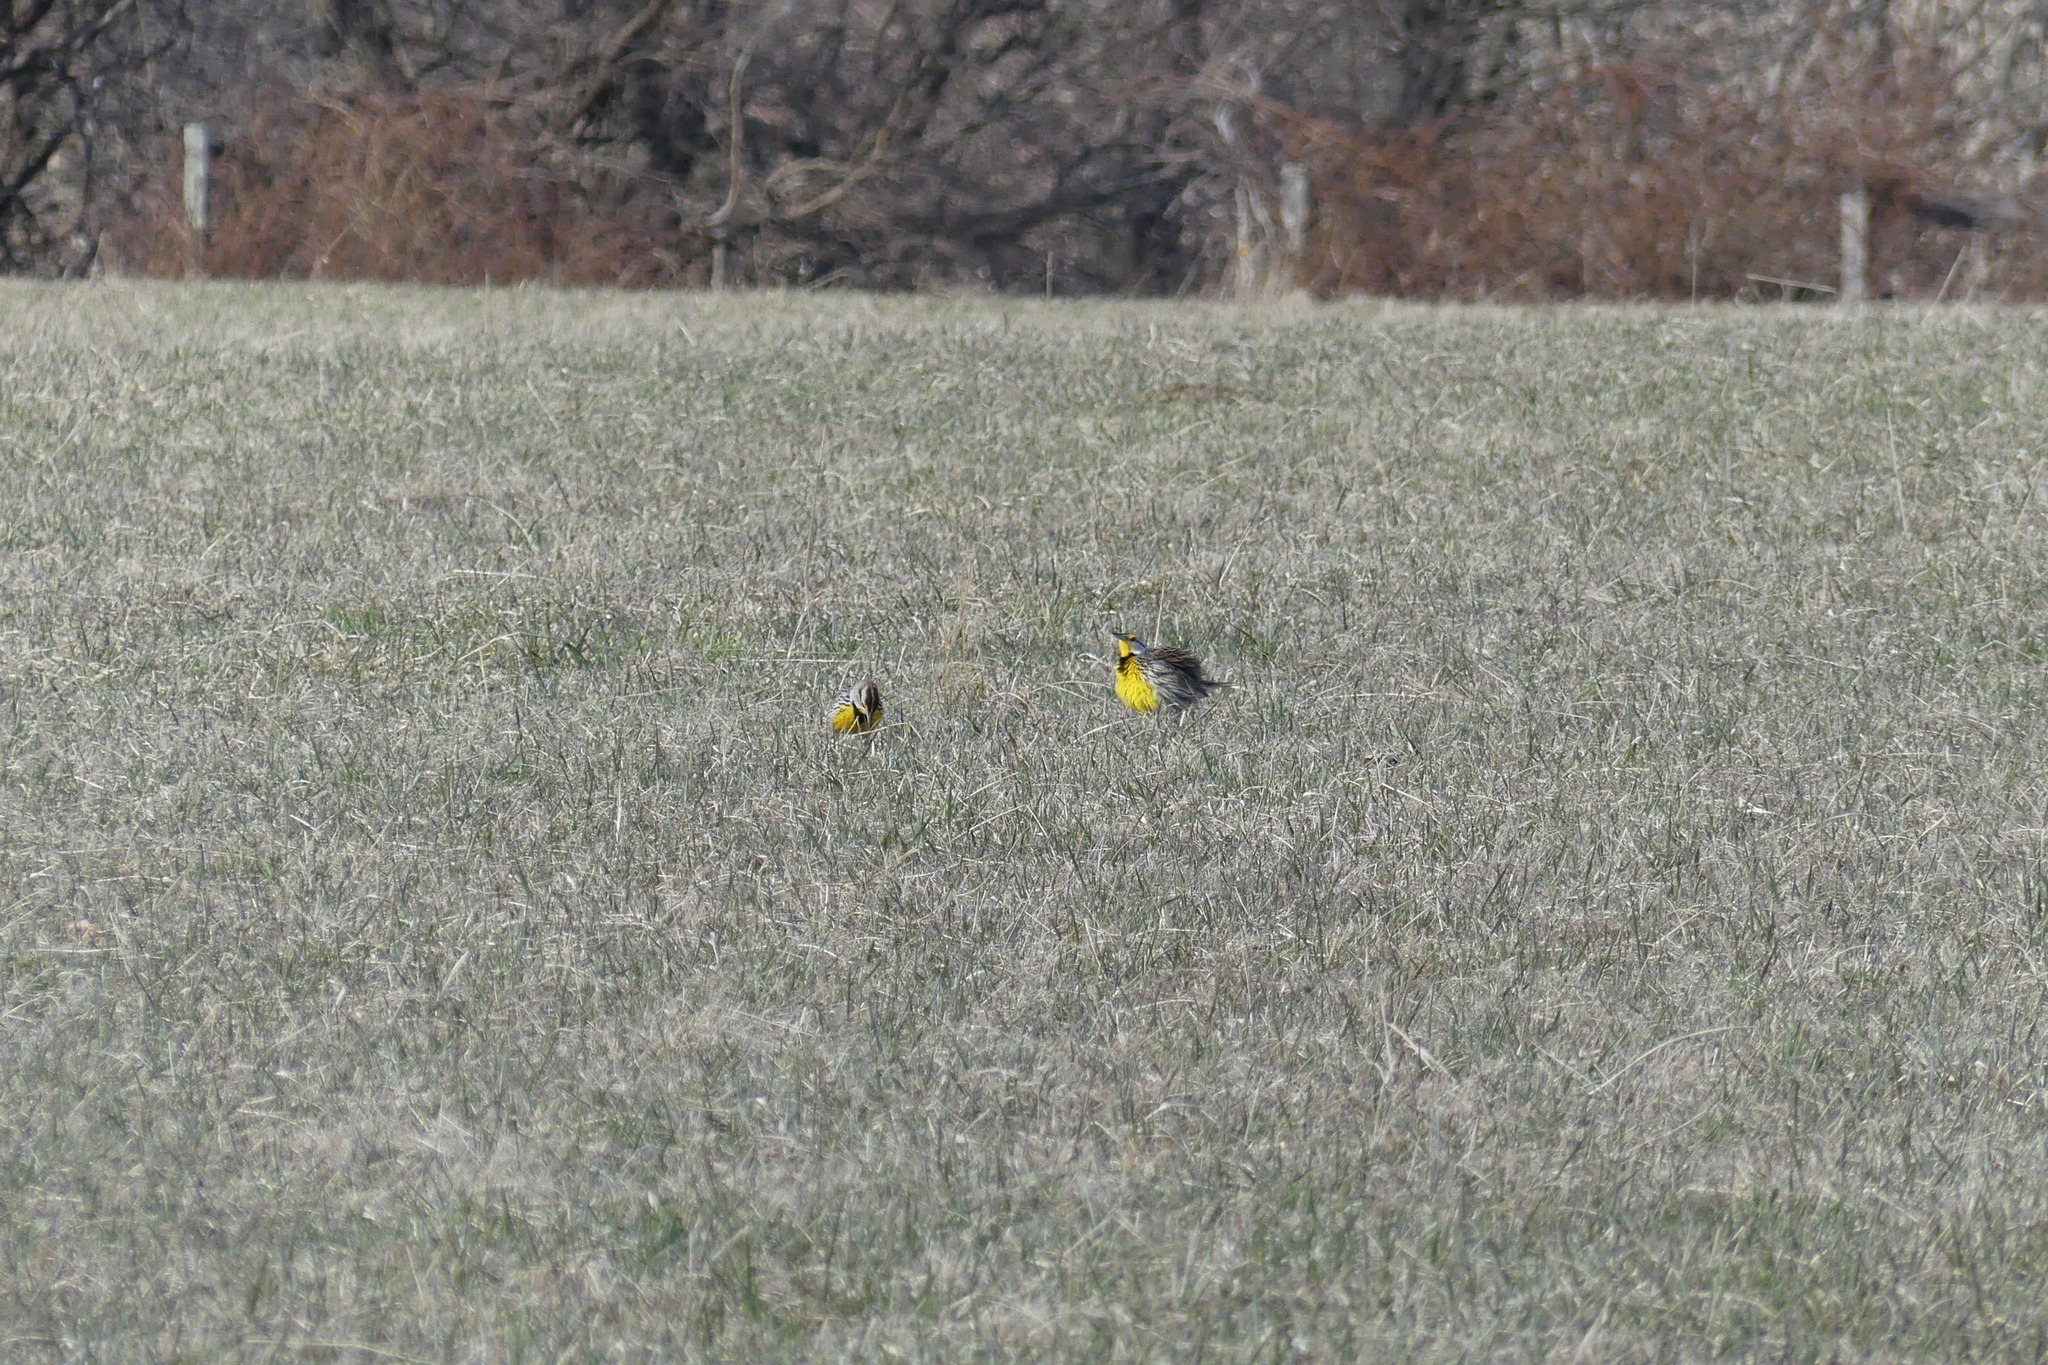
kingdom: Animalia
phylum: Chordata
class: Aves
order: Passeriformes
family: Icteridae
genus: Sturnella
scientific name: Sturnella magna
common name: Eastern meadowlark
